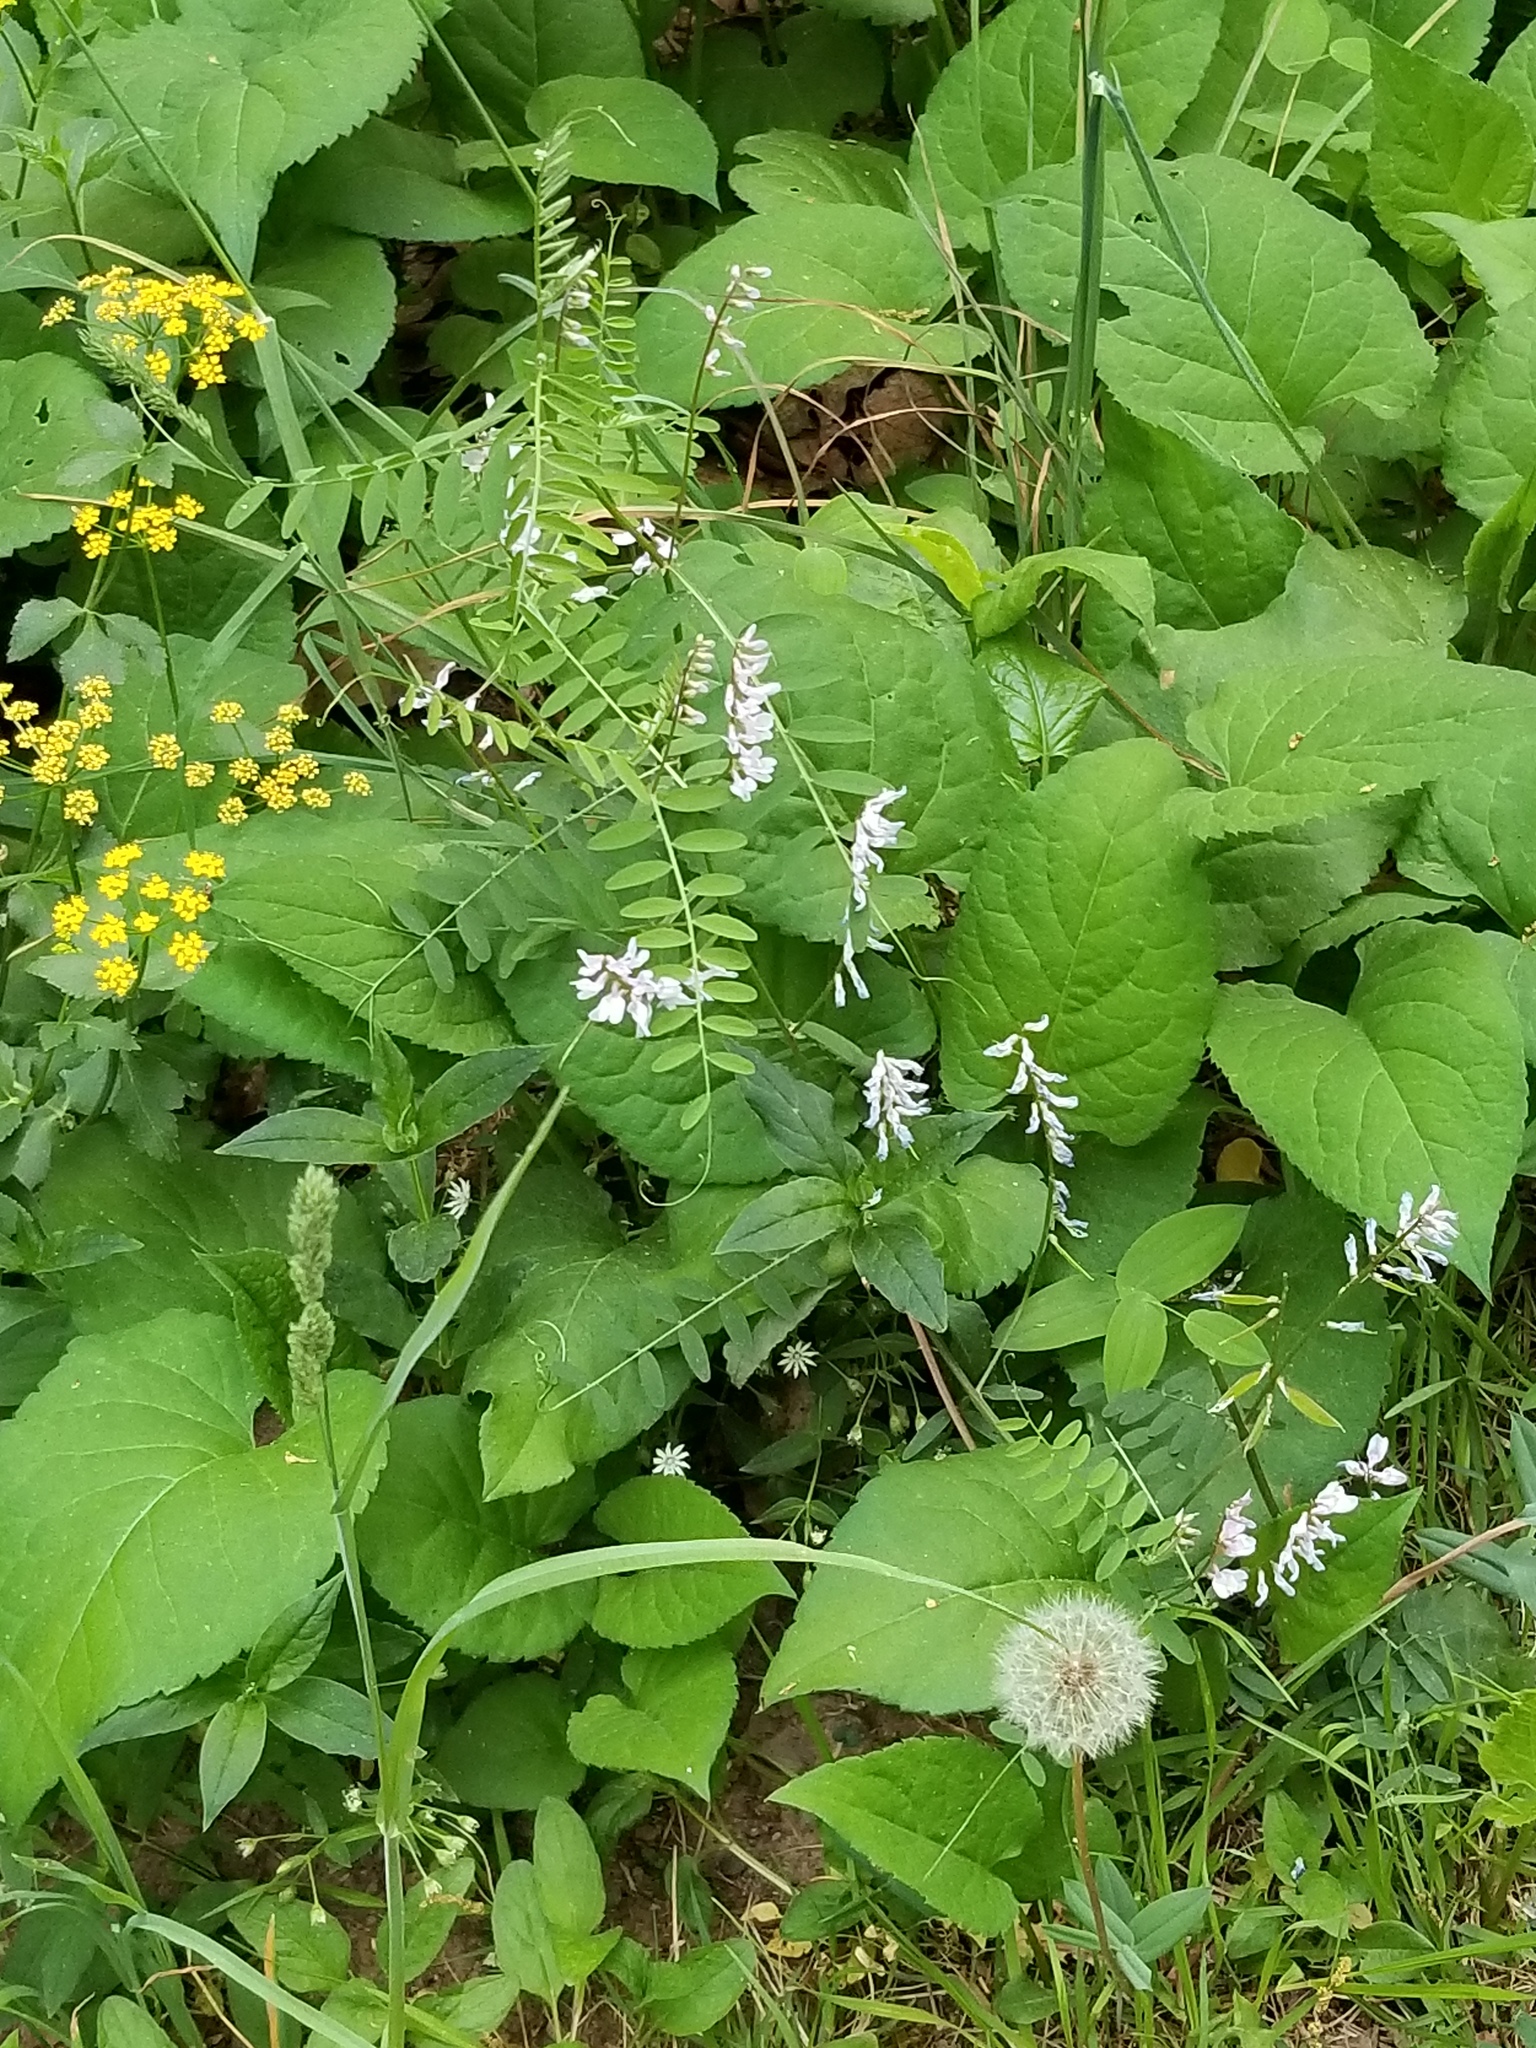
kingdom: Plantae
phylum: Tracheophyta
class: Magnoliopsida
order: Fabales
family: Fabaceae
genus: Vicia
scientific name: Vicia caroliniana
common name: Carolina vetch
